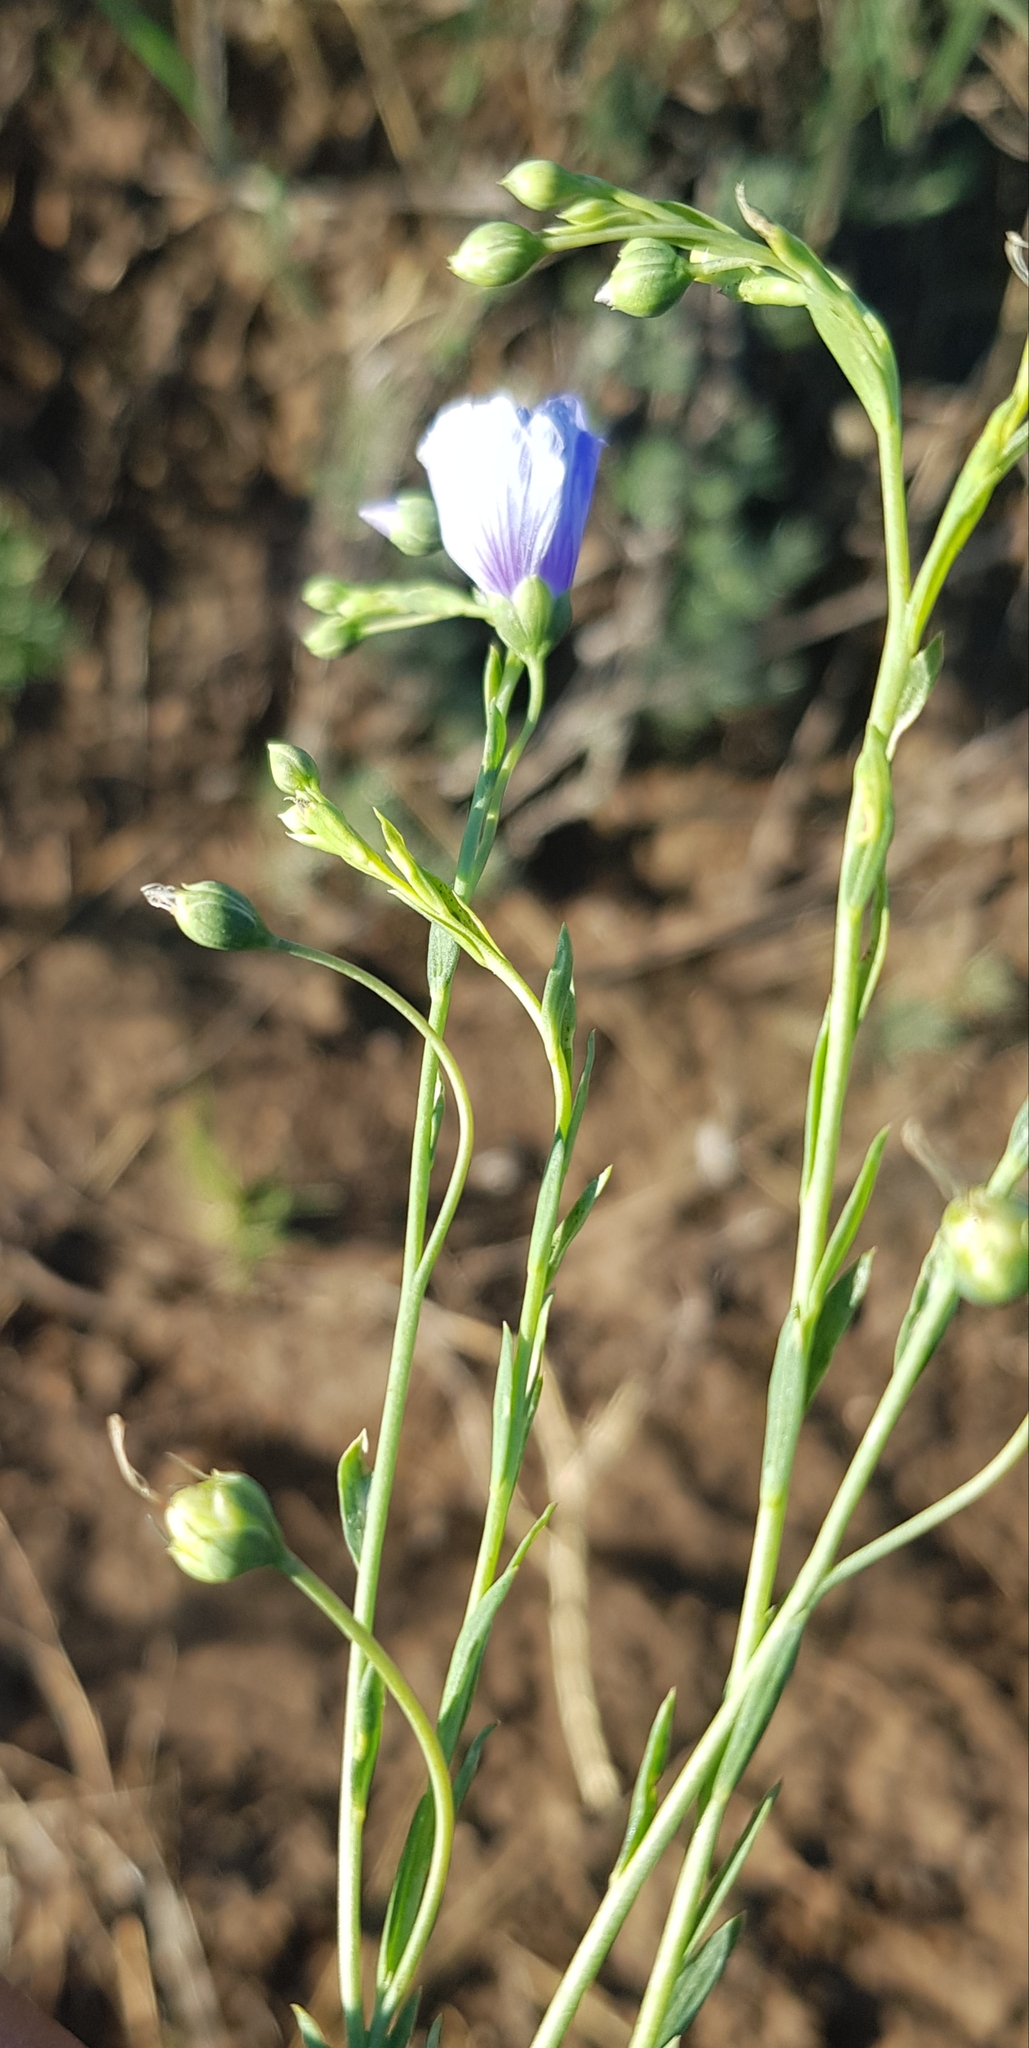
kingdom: Plantae
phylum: Tracheophyta
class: Magnoliopsida
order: Malpighiales
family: Linaceae
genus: Linum
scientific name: Linum usitatissimum
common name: Flax
